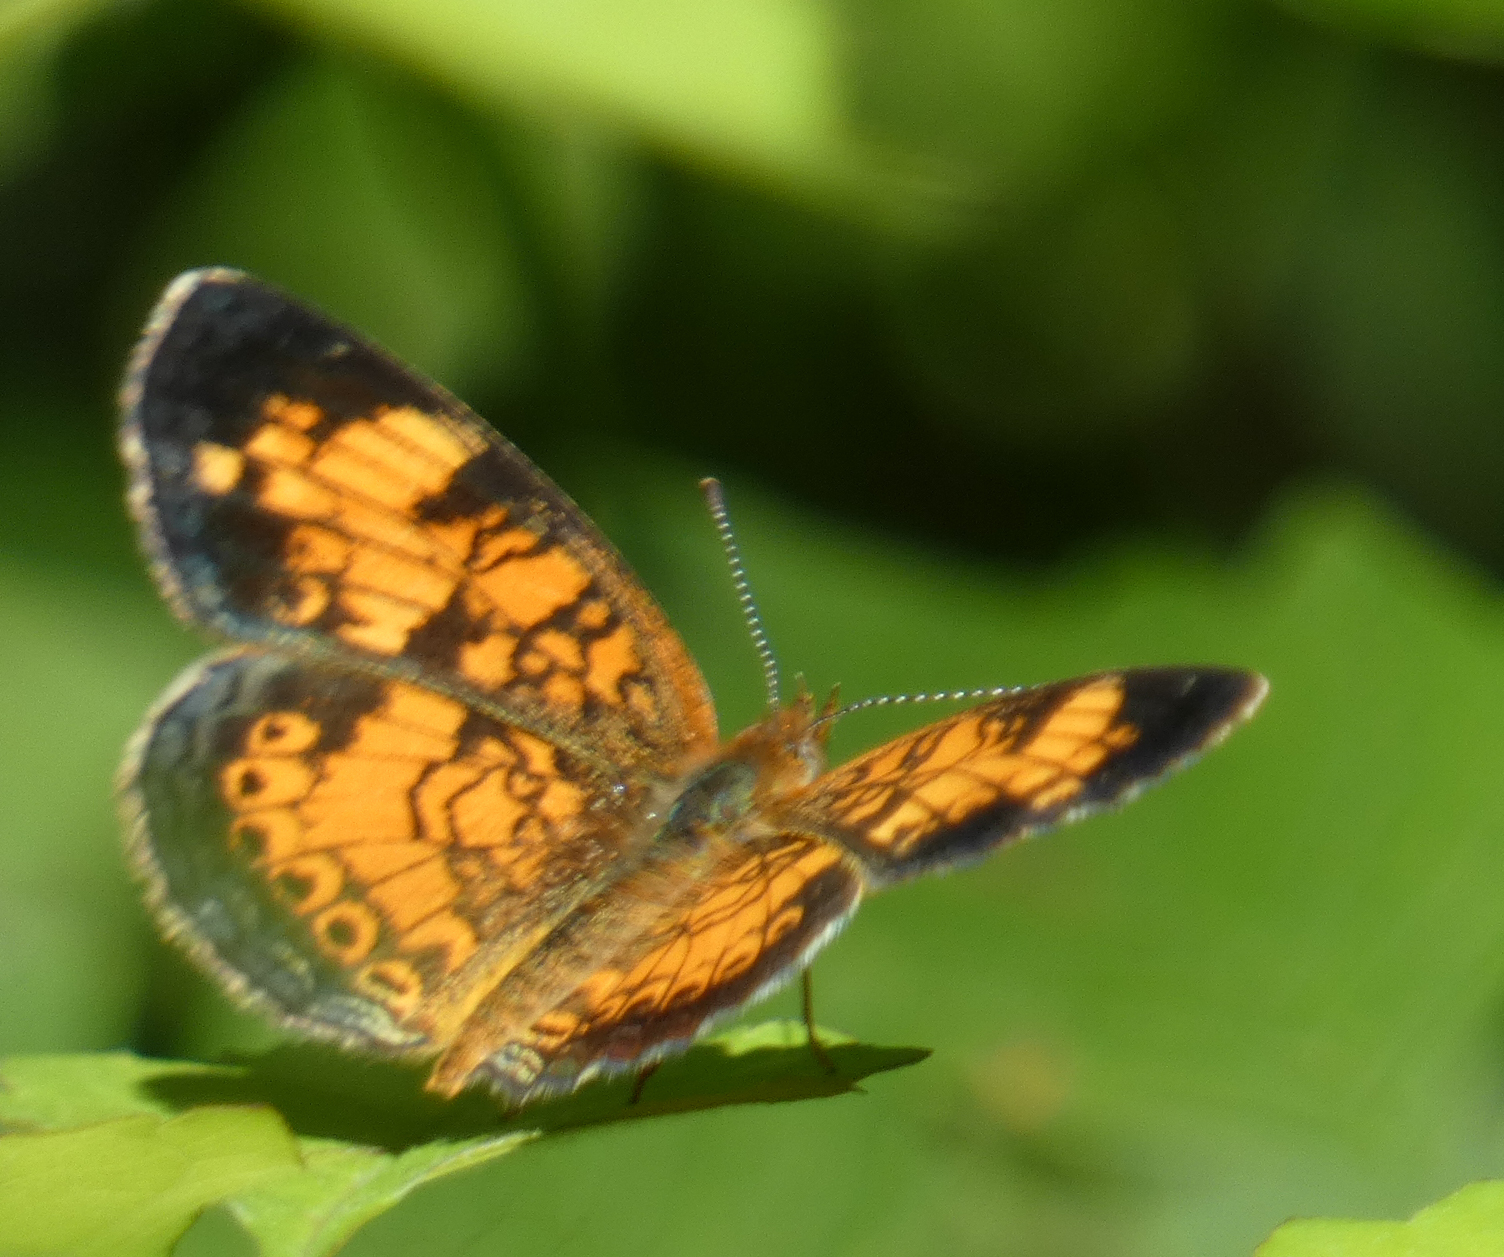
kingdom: Animalia
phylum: Arthropoda
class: Insecta
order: Lepidoptera
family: Nymphalidae
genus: Phyciodes
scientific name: Phyciodes tharos
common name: Pearl crescent
